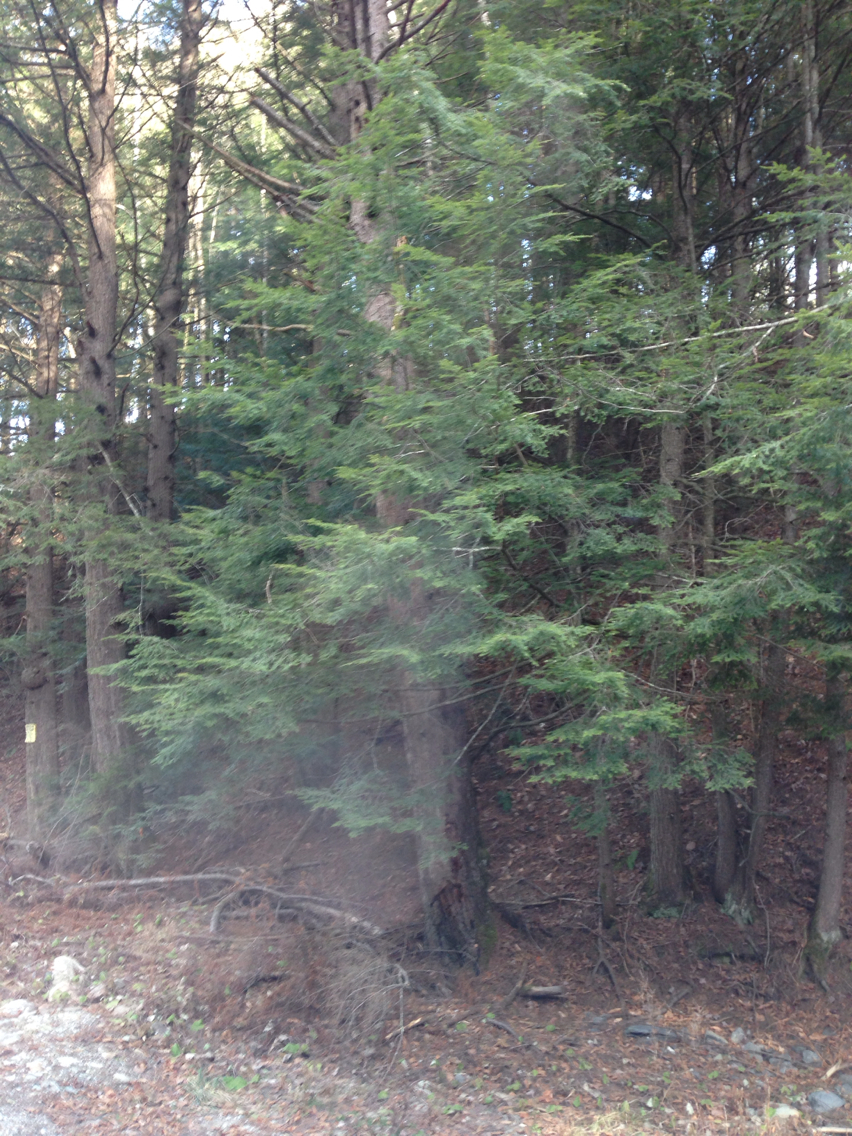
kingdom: Plantae
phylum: Tracheophyta
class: Pinopsida
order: Pinales
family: Pinaceae
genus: Tsuga
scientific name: Tsuga canadensis
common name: Eastern hemlock
